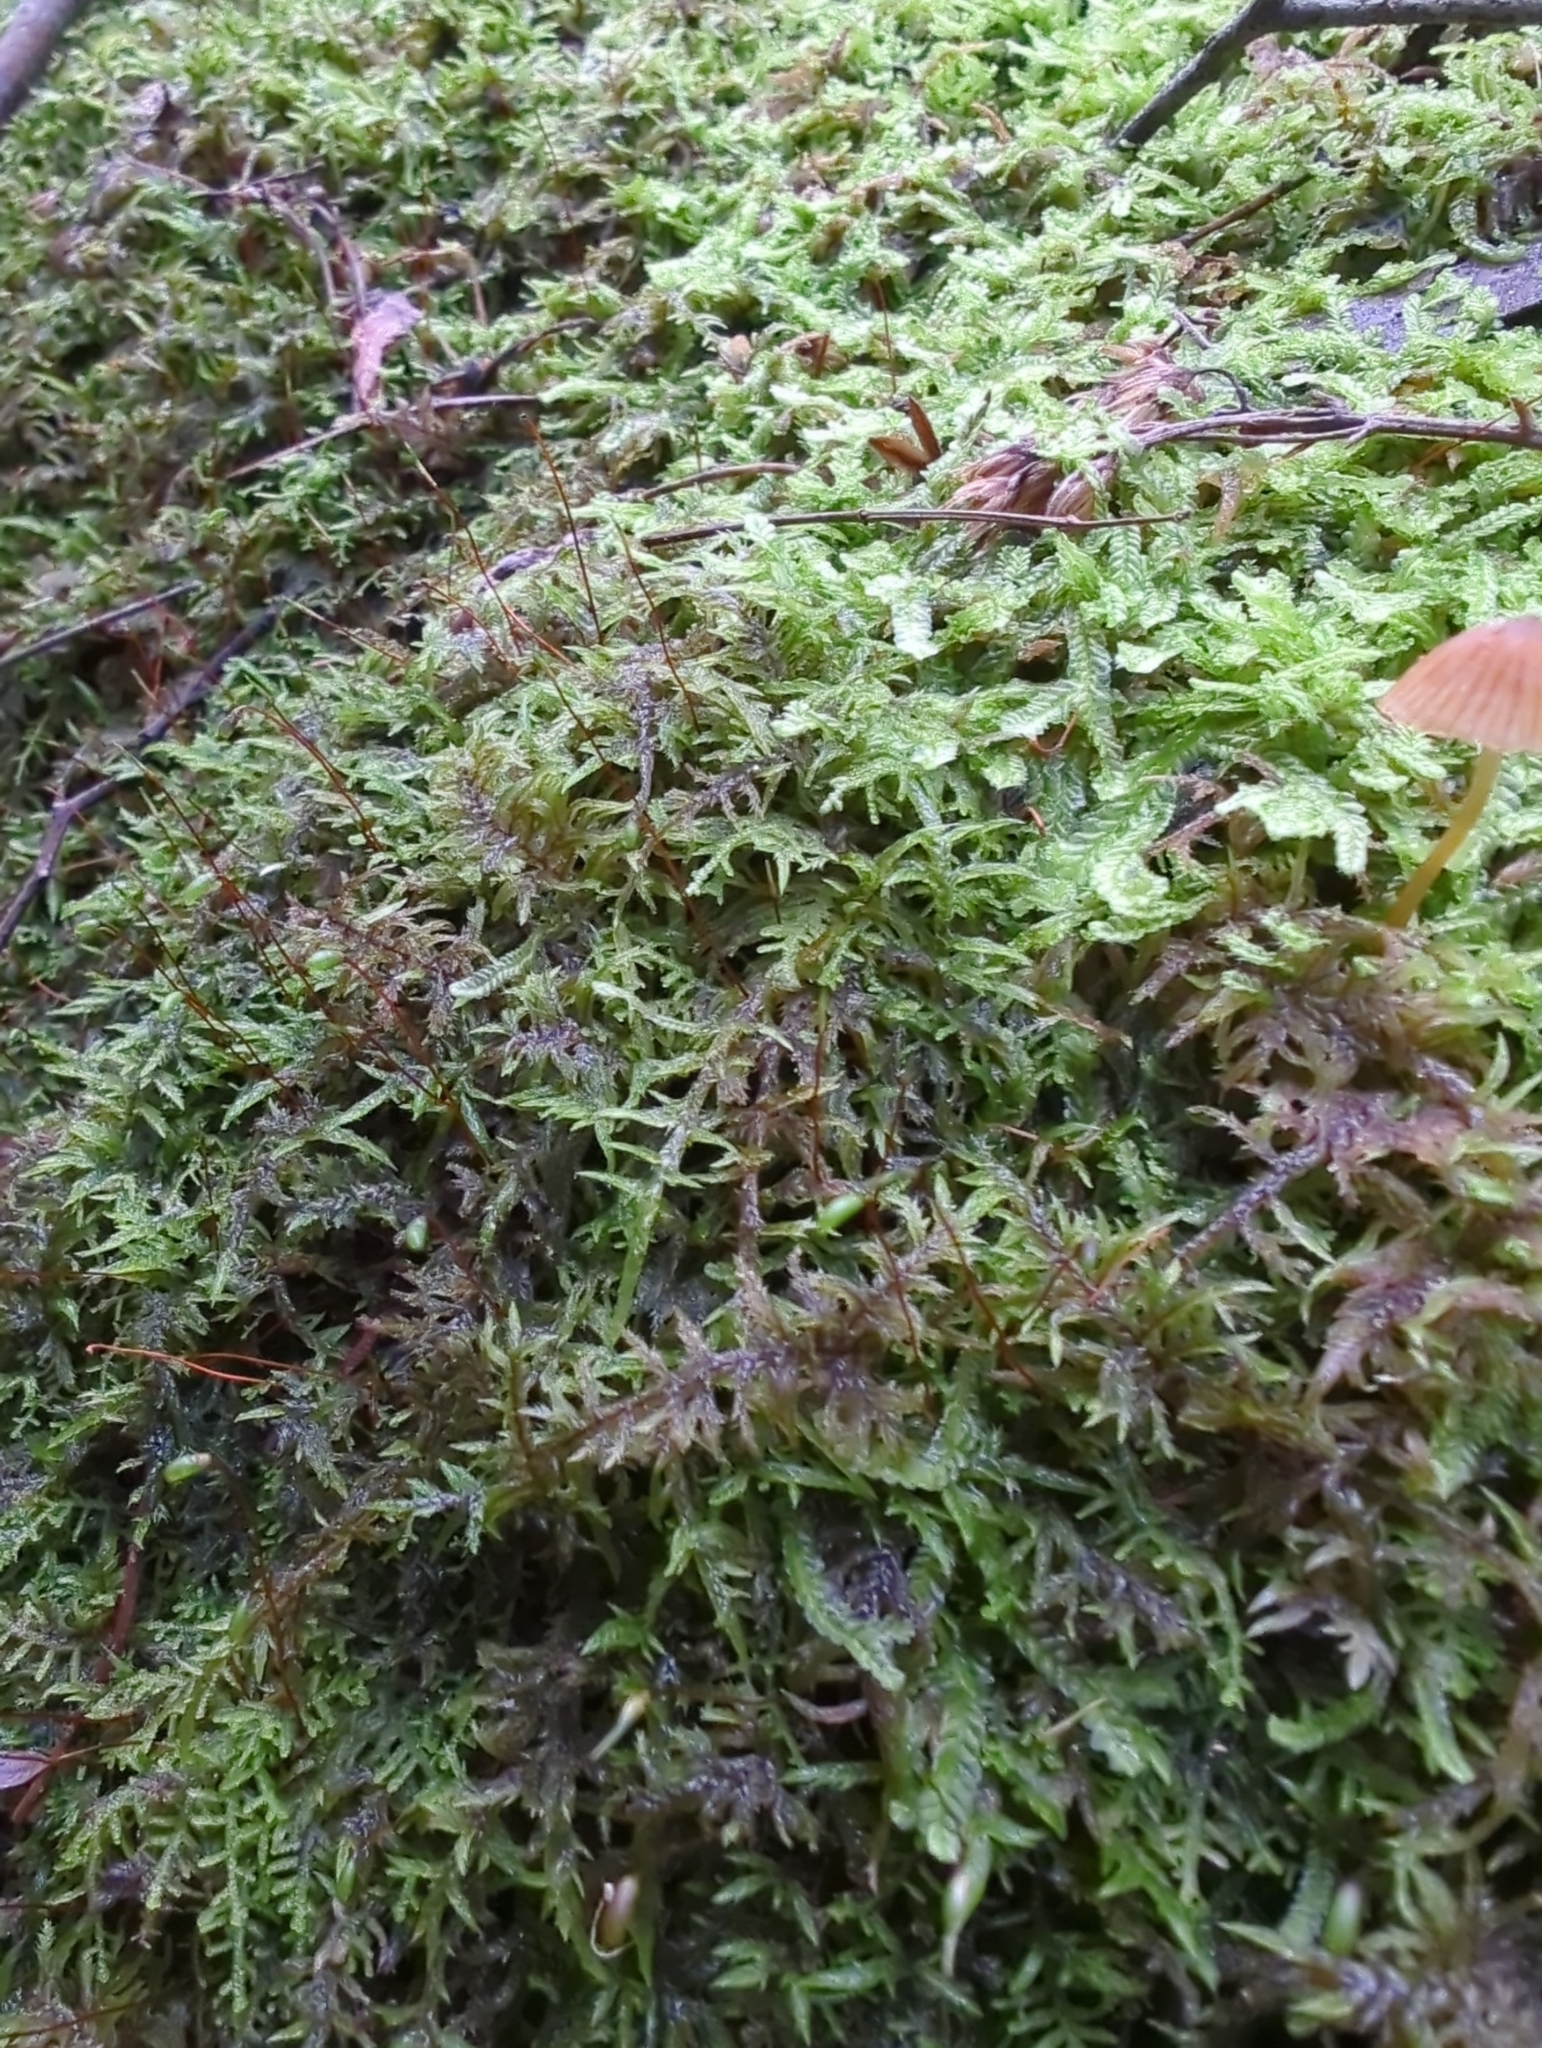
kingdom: Plantae
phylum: Bryophyta
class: Bryopsida
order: Hypnales
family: Pylaisiadelphaceae
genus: Wijkia
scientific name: Wijkia extenuata
